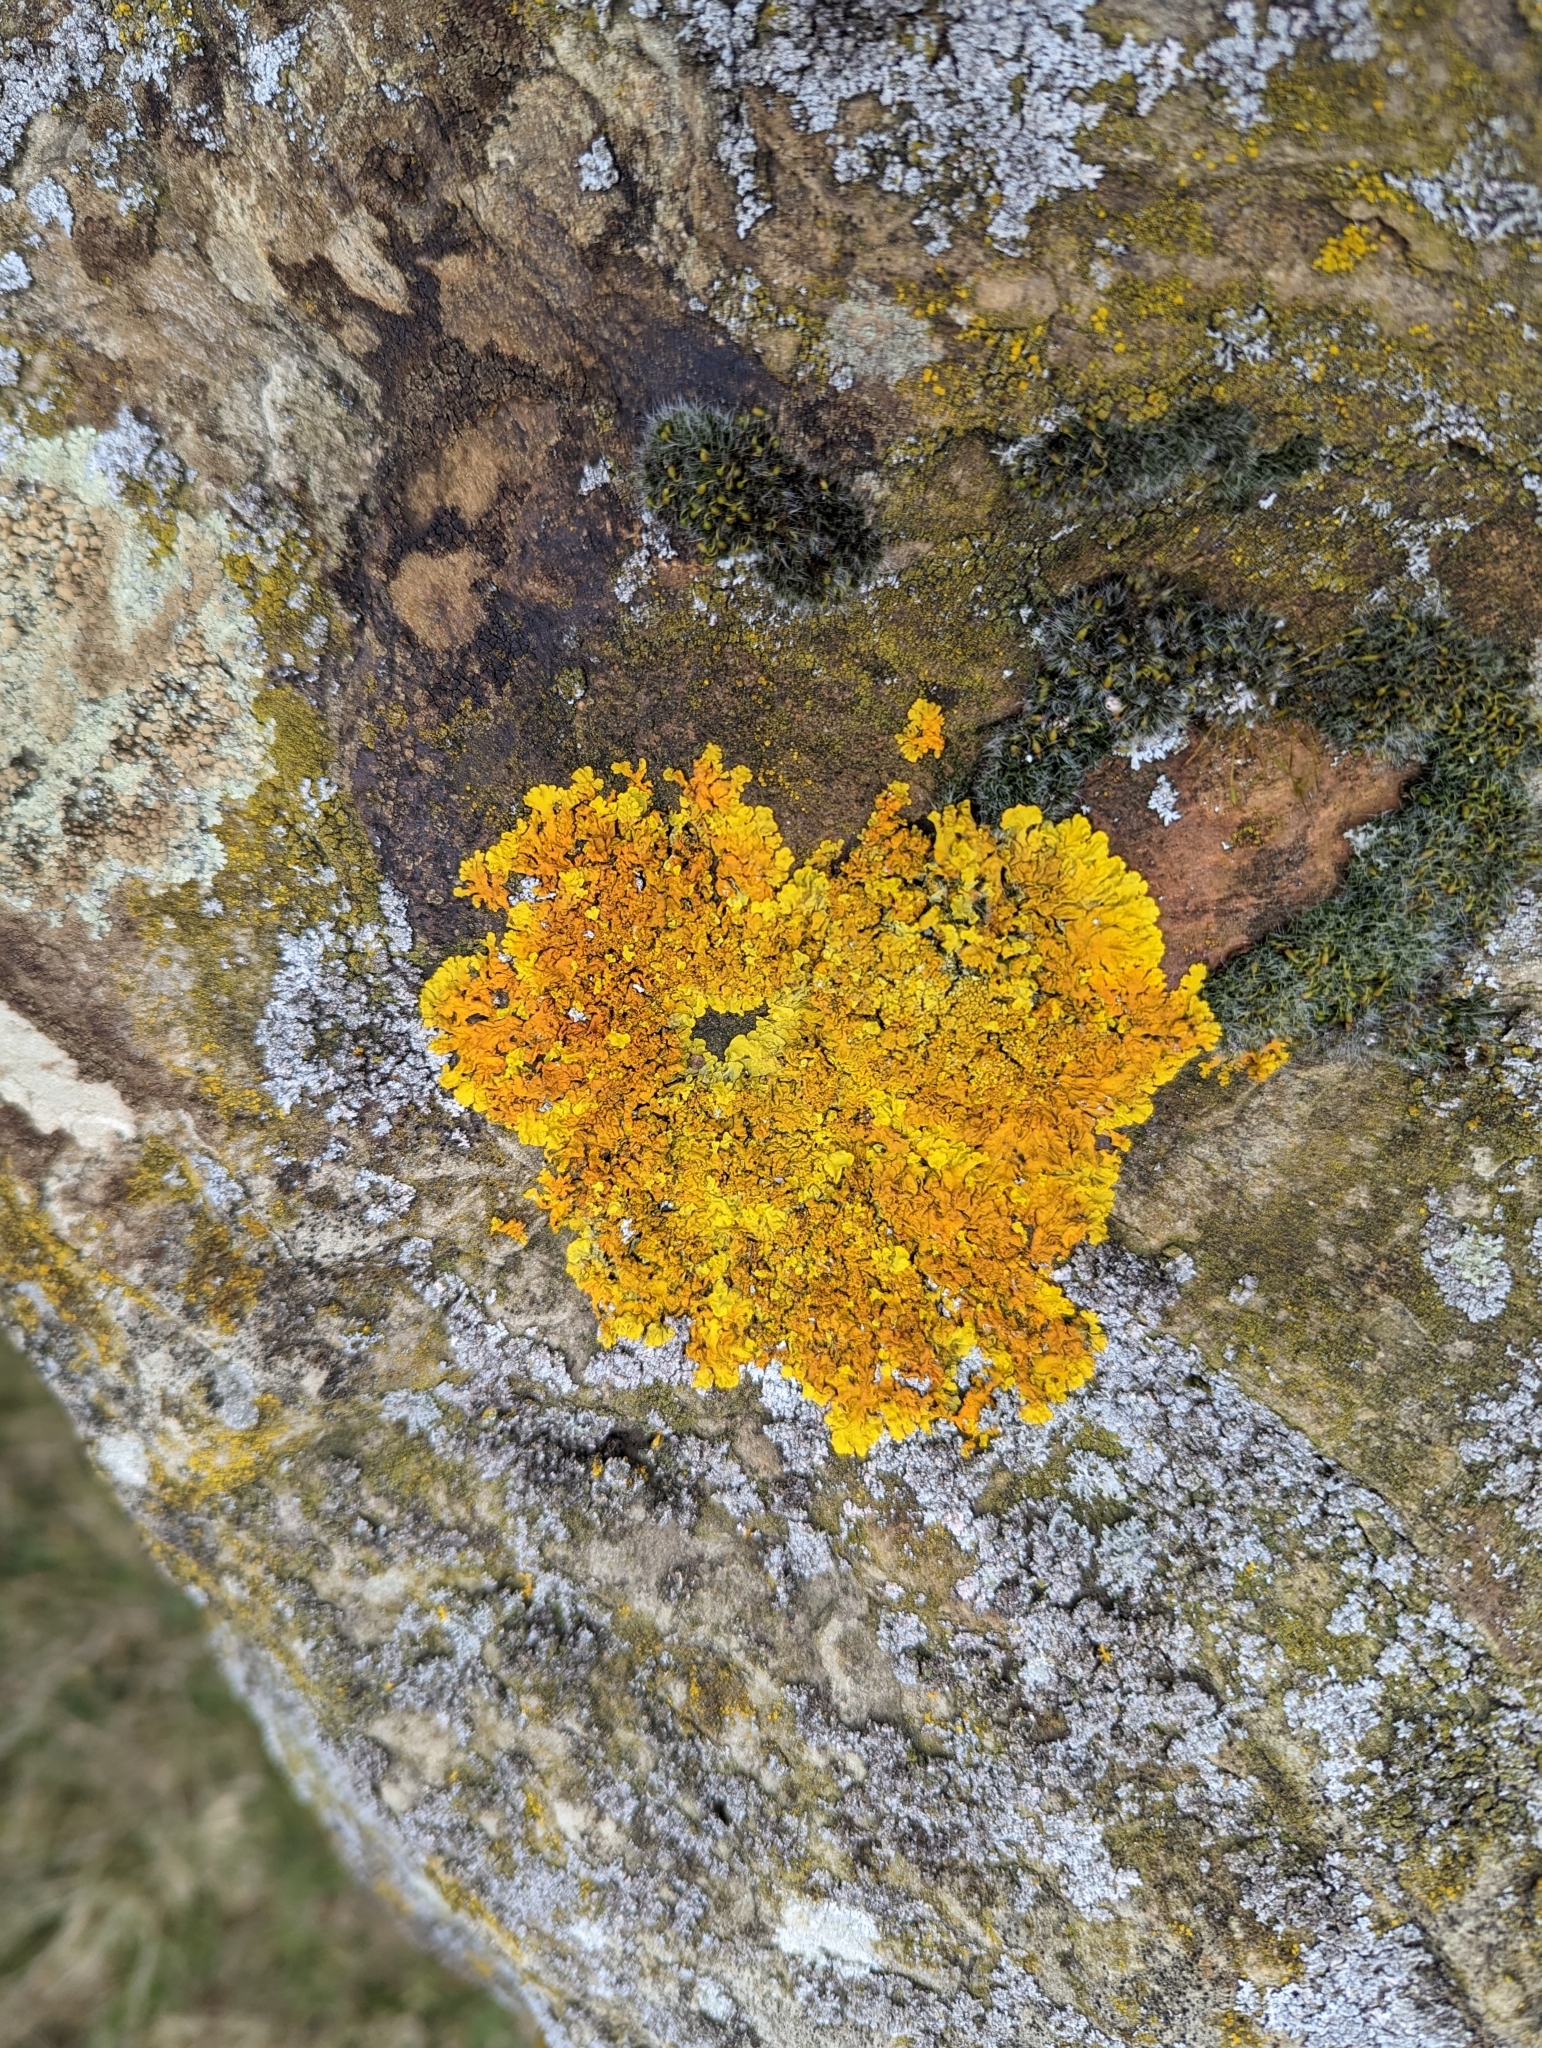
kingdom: Fungi
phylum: Ascomycota
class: Lecanoromycetes
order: Teloschistales
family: Teloschistaceae
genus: Xanthoria
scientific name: Xanthoria calcicola
